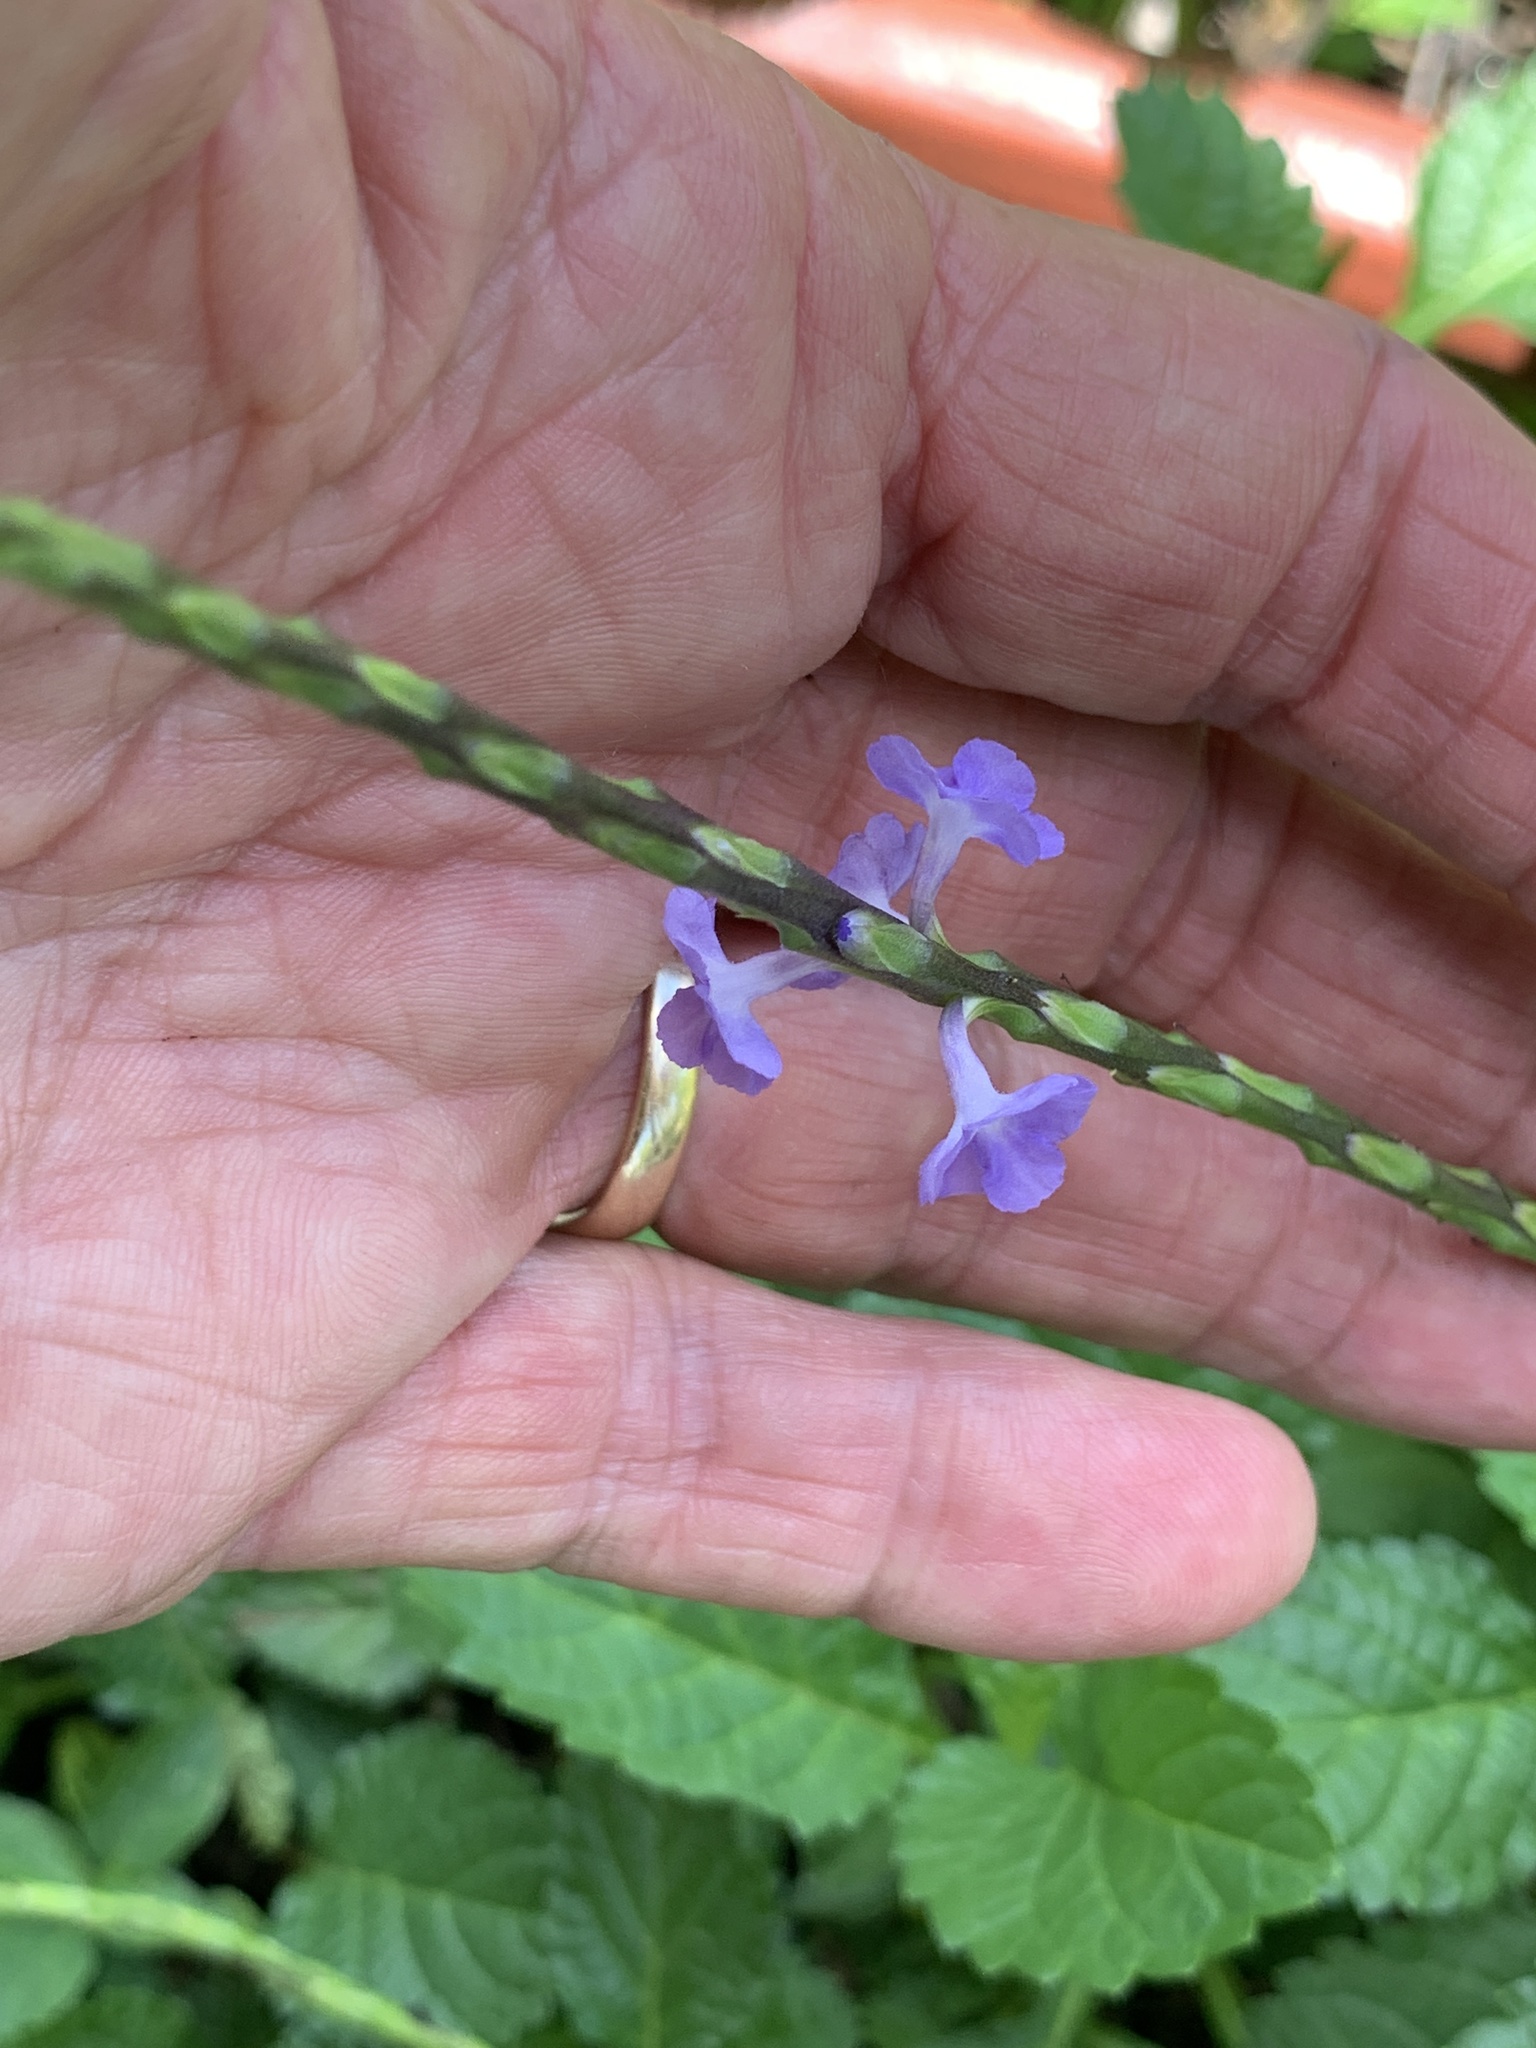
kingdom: Plantae
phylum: Tracheophyta
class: Magnoliopsida
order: Lamiales
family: Verbenaceae
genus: Stachytarpheta
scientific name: Stachytarpheta cayennensis
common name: Cayenne porterweed
